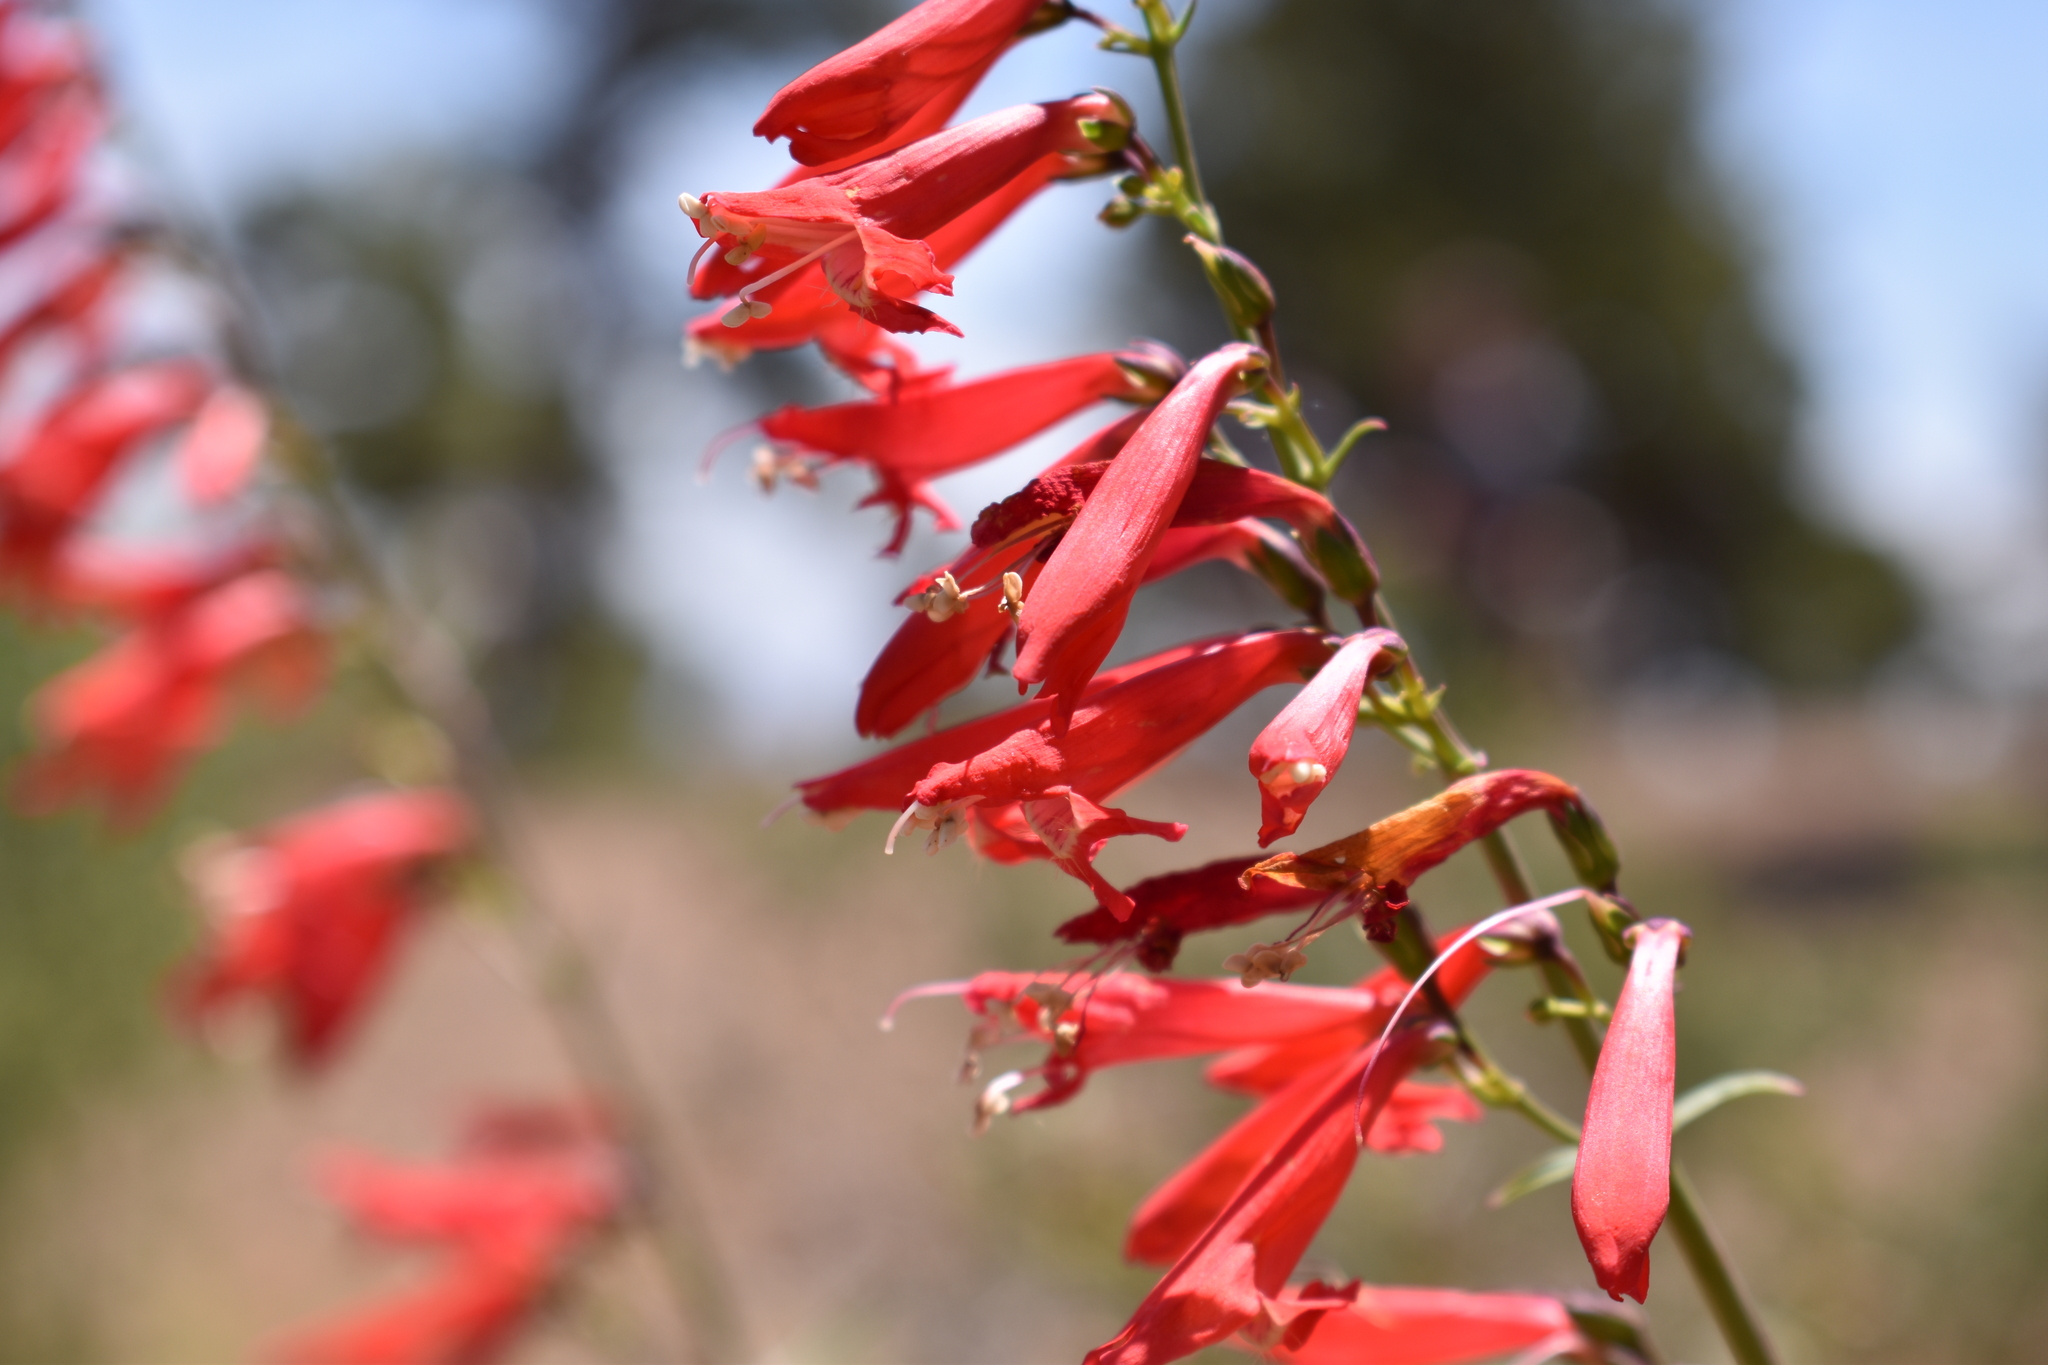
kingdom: Plantae
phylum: Tracheophyta
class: Magnoliopsida
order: Lamiales
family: Plantaginaceae
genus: Penstemon
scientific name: Penstemon barbatus
